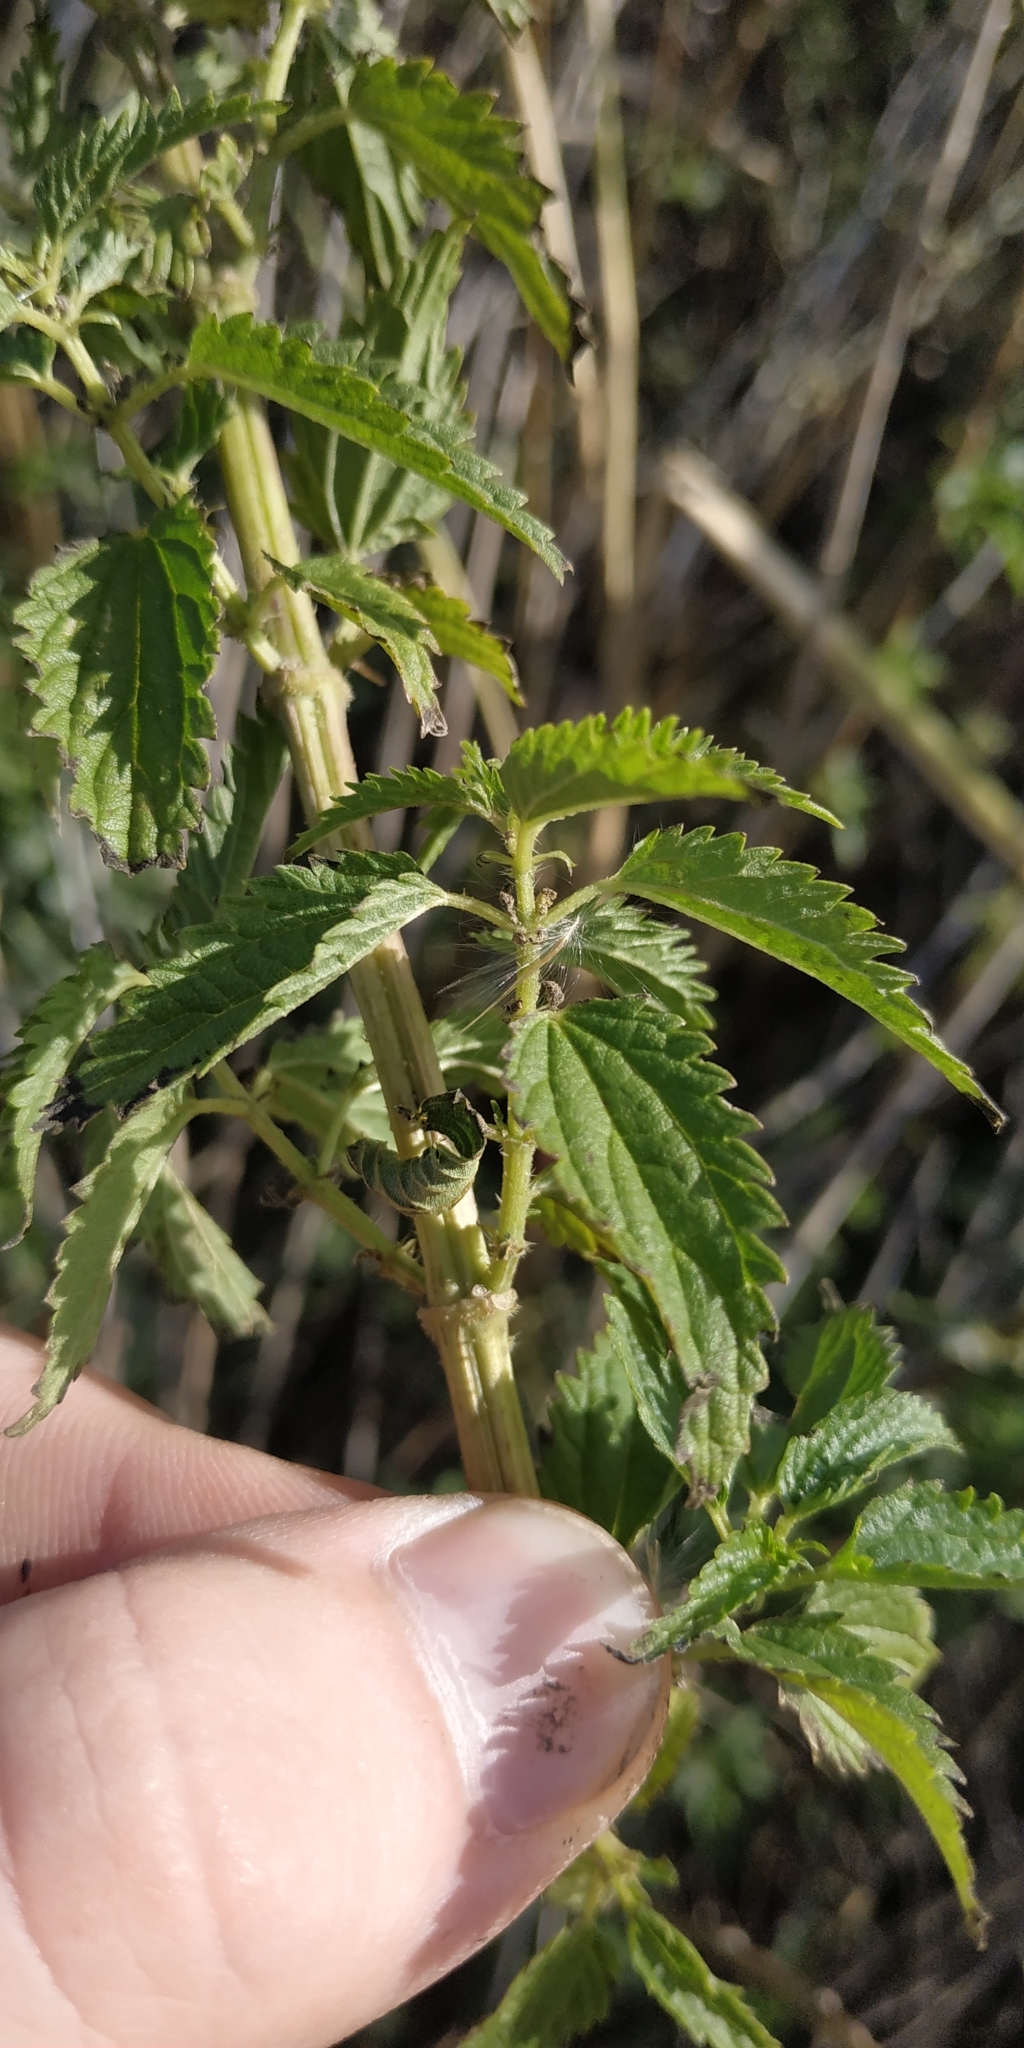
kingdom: Plantae
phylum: Tracheophyta
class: Magnoliopsida
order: Rosales
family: Urticaceae
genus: Urtica
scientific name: Urtica dioica
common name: Common nettle
